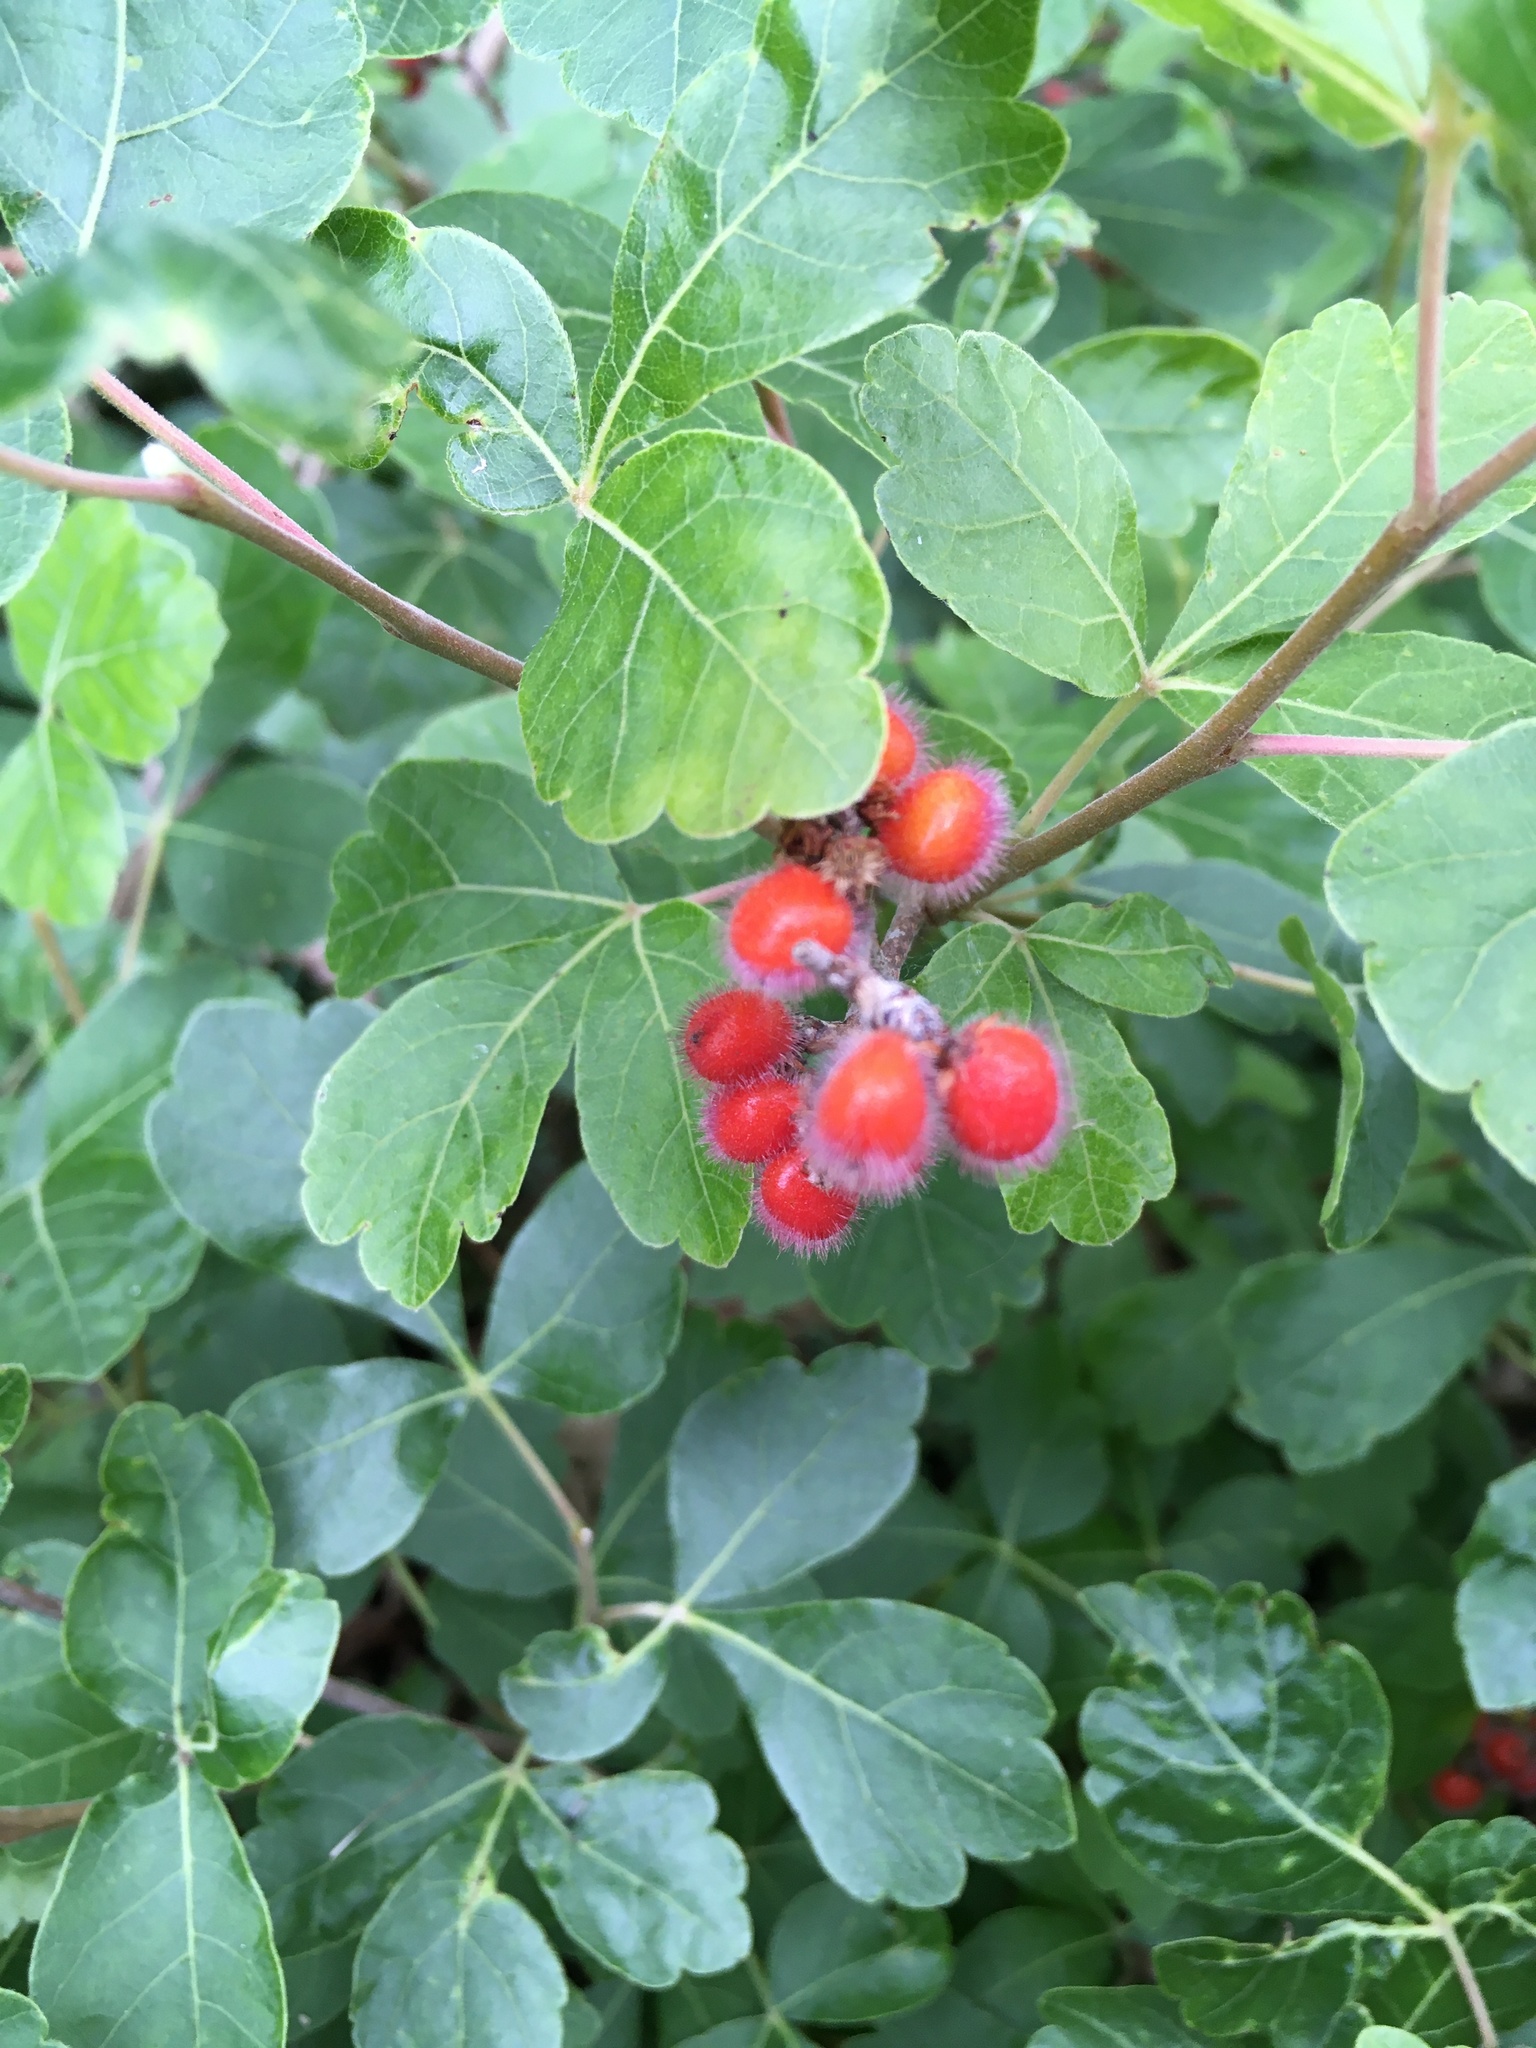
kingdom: Plantae
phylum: Tracheophyta
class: Magnoliopsida
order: Sapindales
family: Anacardiaceae
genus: Rhus
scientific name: Rhus aromatica
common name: Aromatic sumac
